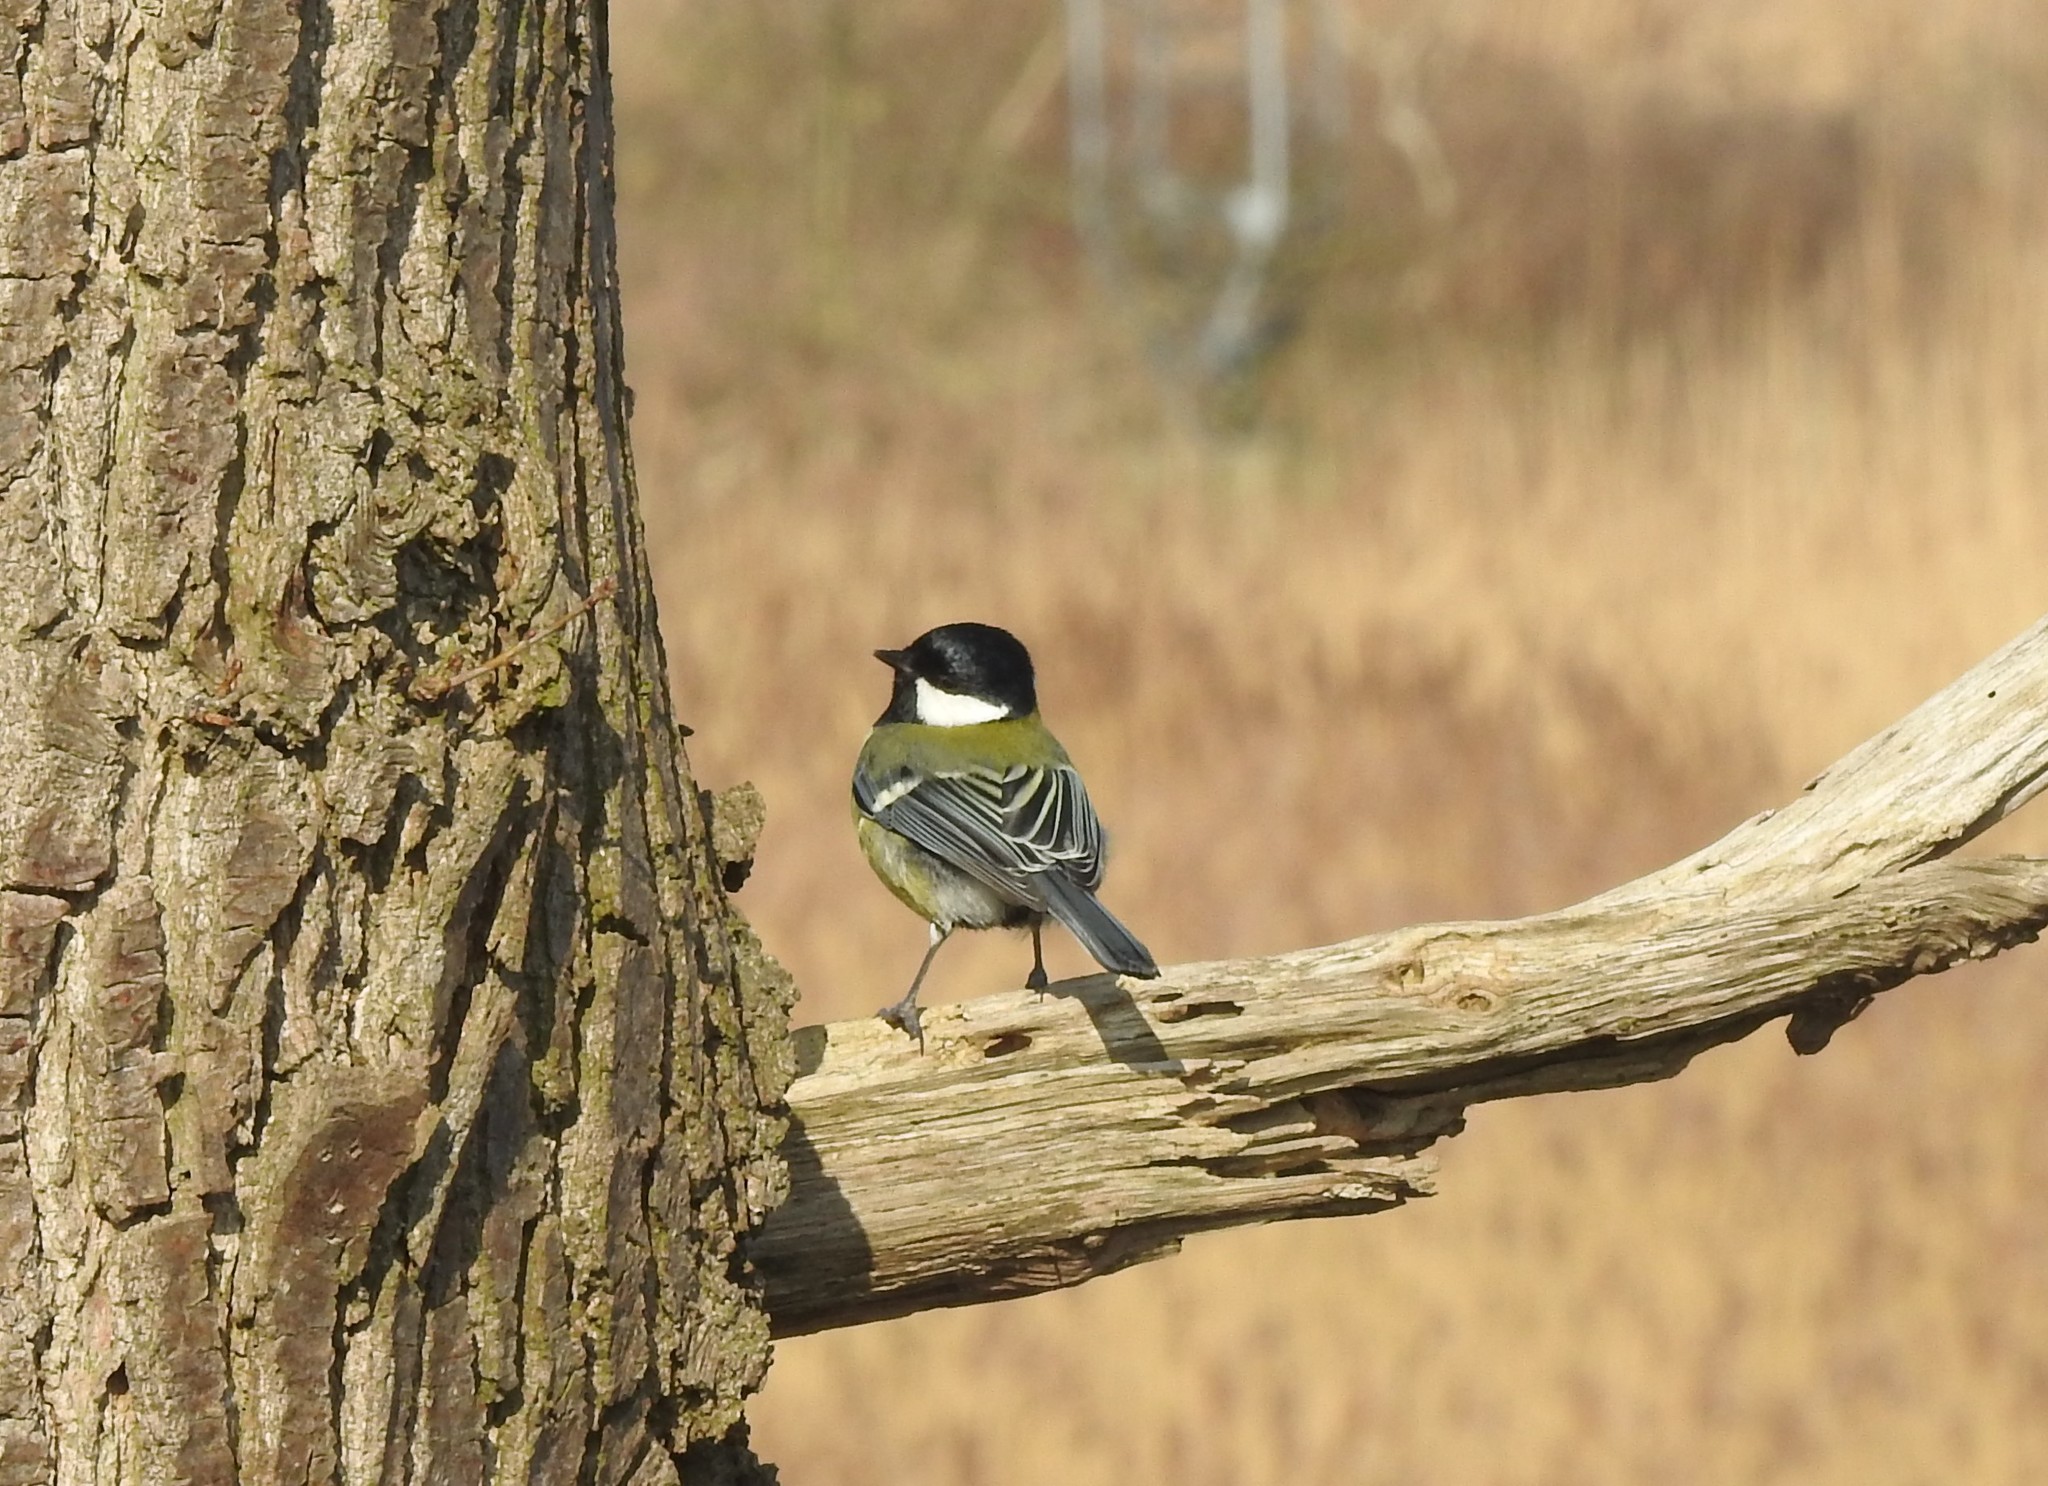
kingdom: Animalia
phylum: Chordata
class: Aves
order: Passeriformes
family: Paridae
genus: Parus
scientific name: Parus major
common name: Great tit
